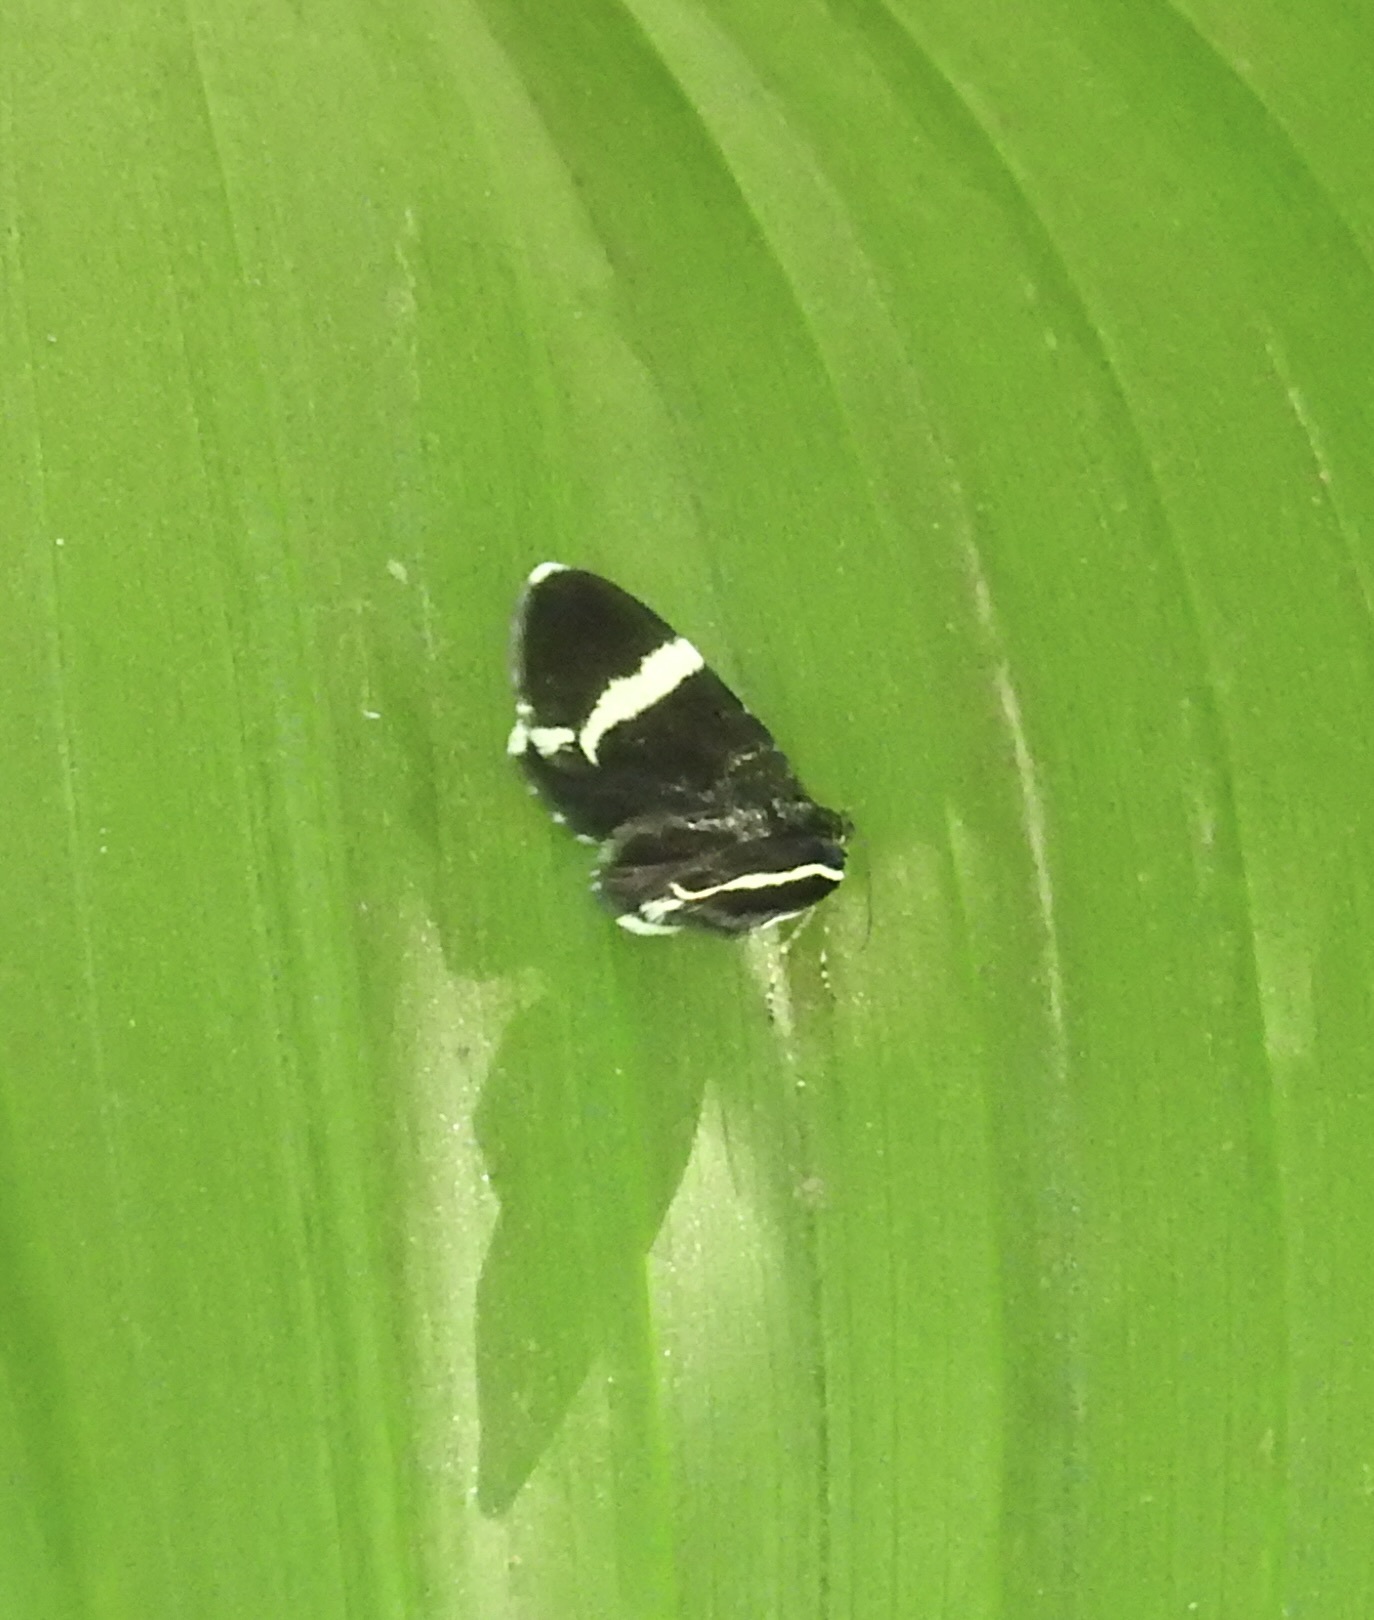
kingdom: Animalia
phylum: Arthropoda
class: Insecta
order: Lepidoptera
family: Geometridae
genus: Trichodezia
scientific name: Trichodezia albovittata
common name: White striped black
